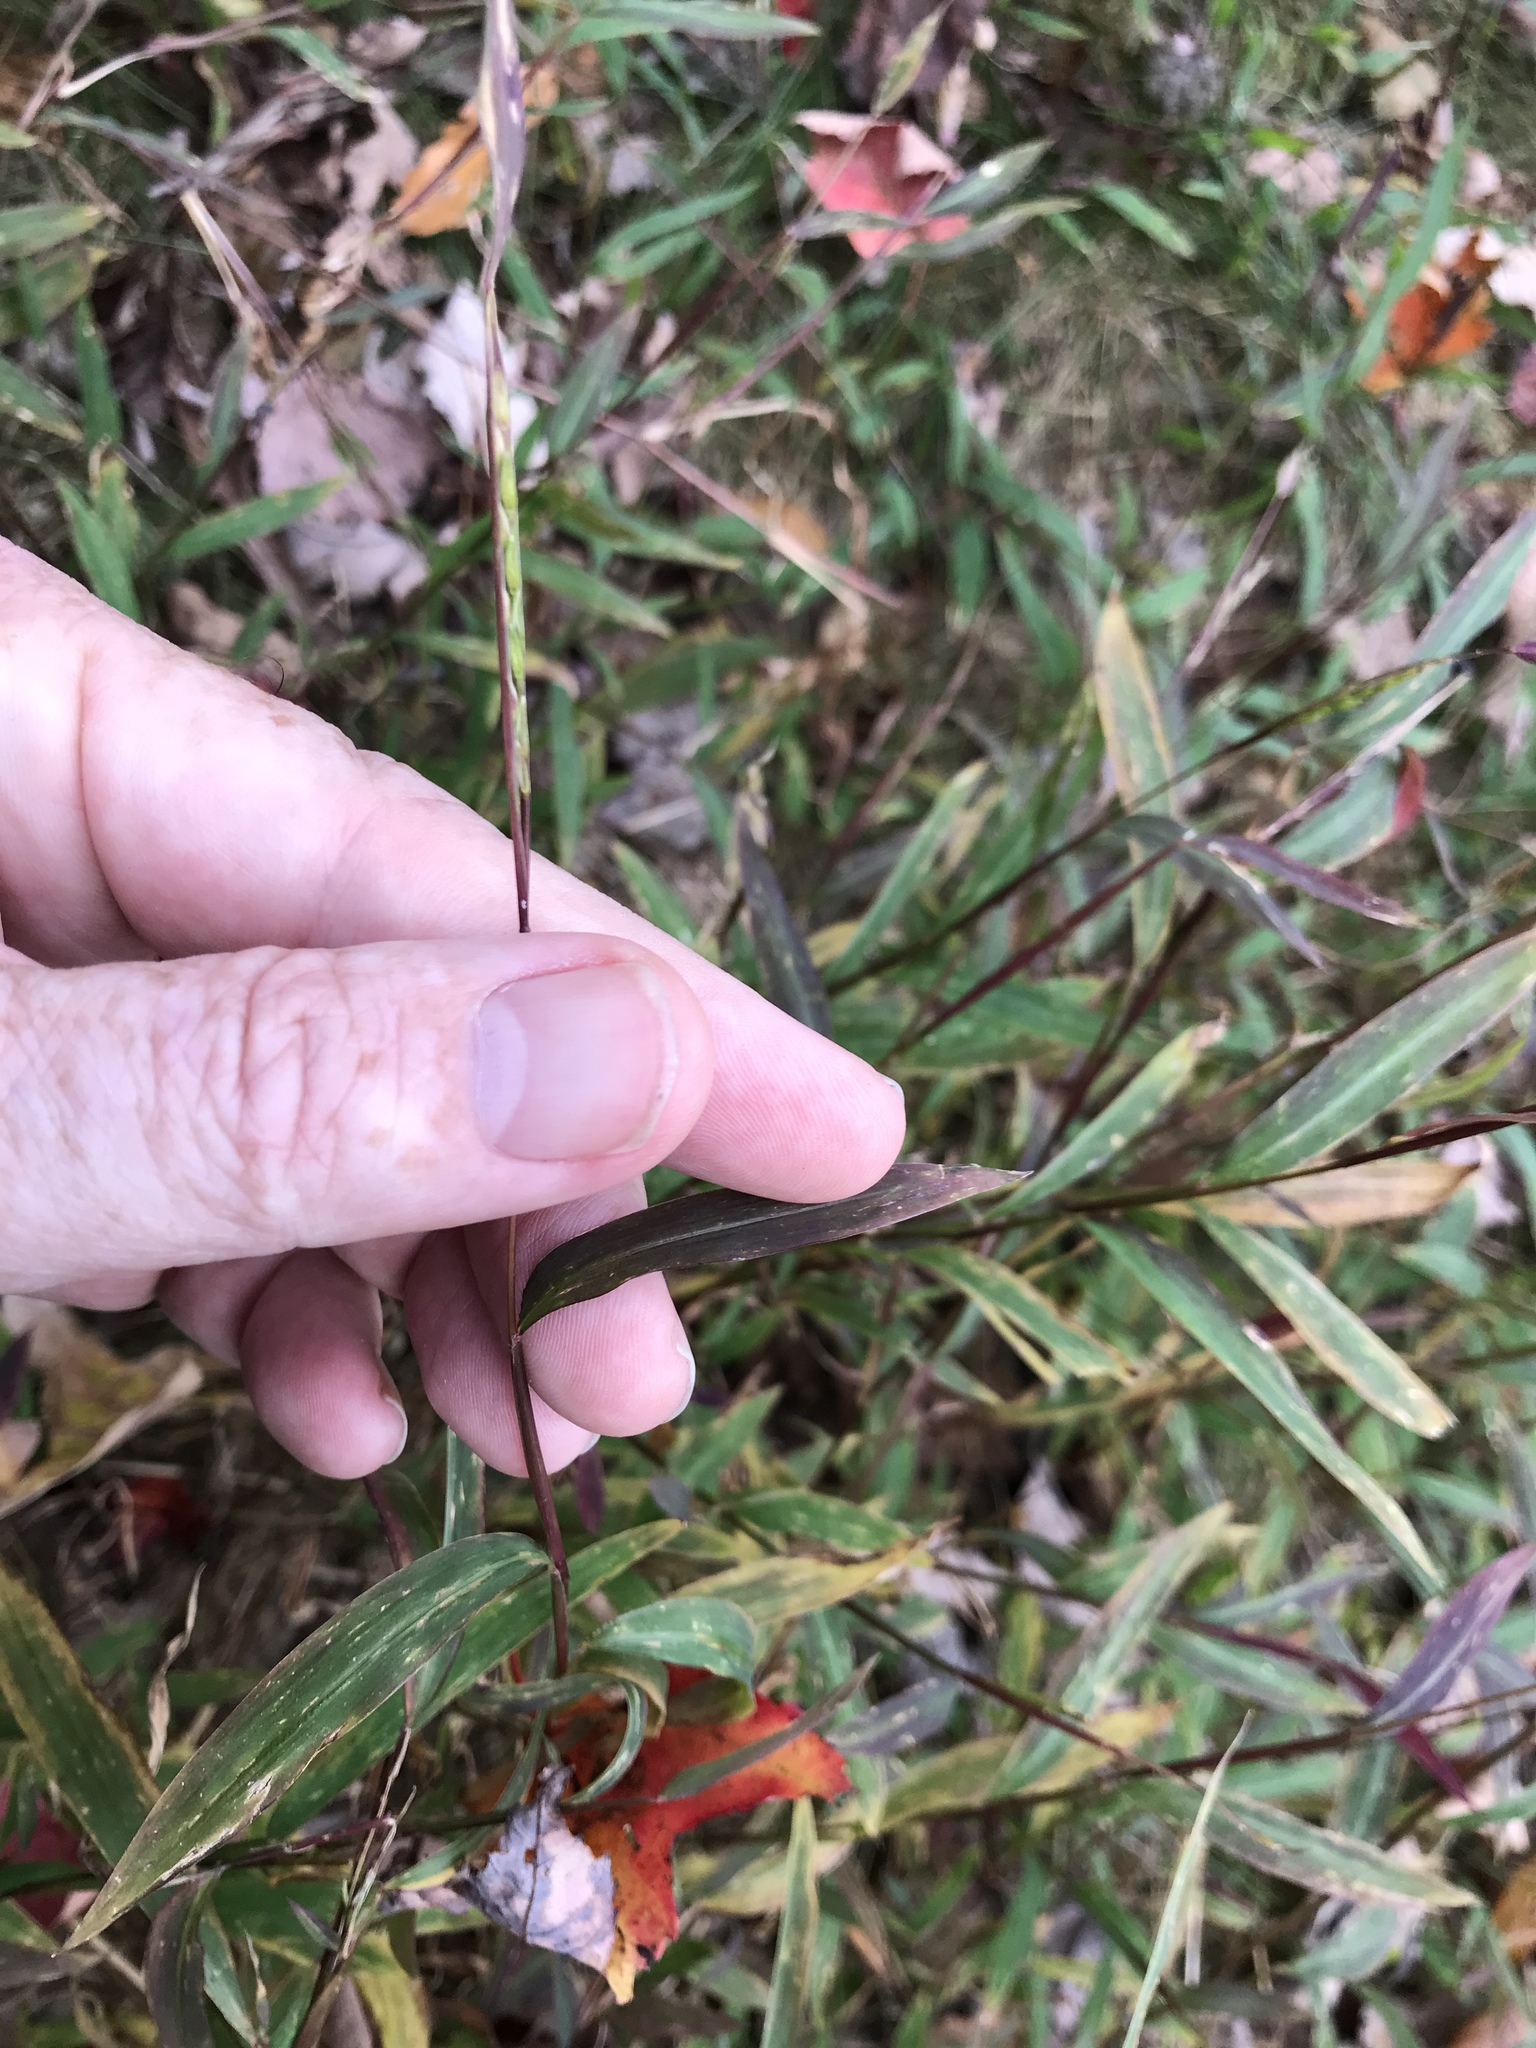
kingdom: Plantae
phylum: Tracheophyta
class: Liliopsida
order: Poales
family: Poaceae
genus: Microstegium
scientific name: Microstegium vimineum
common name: Japanese stiltgrass
